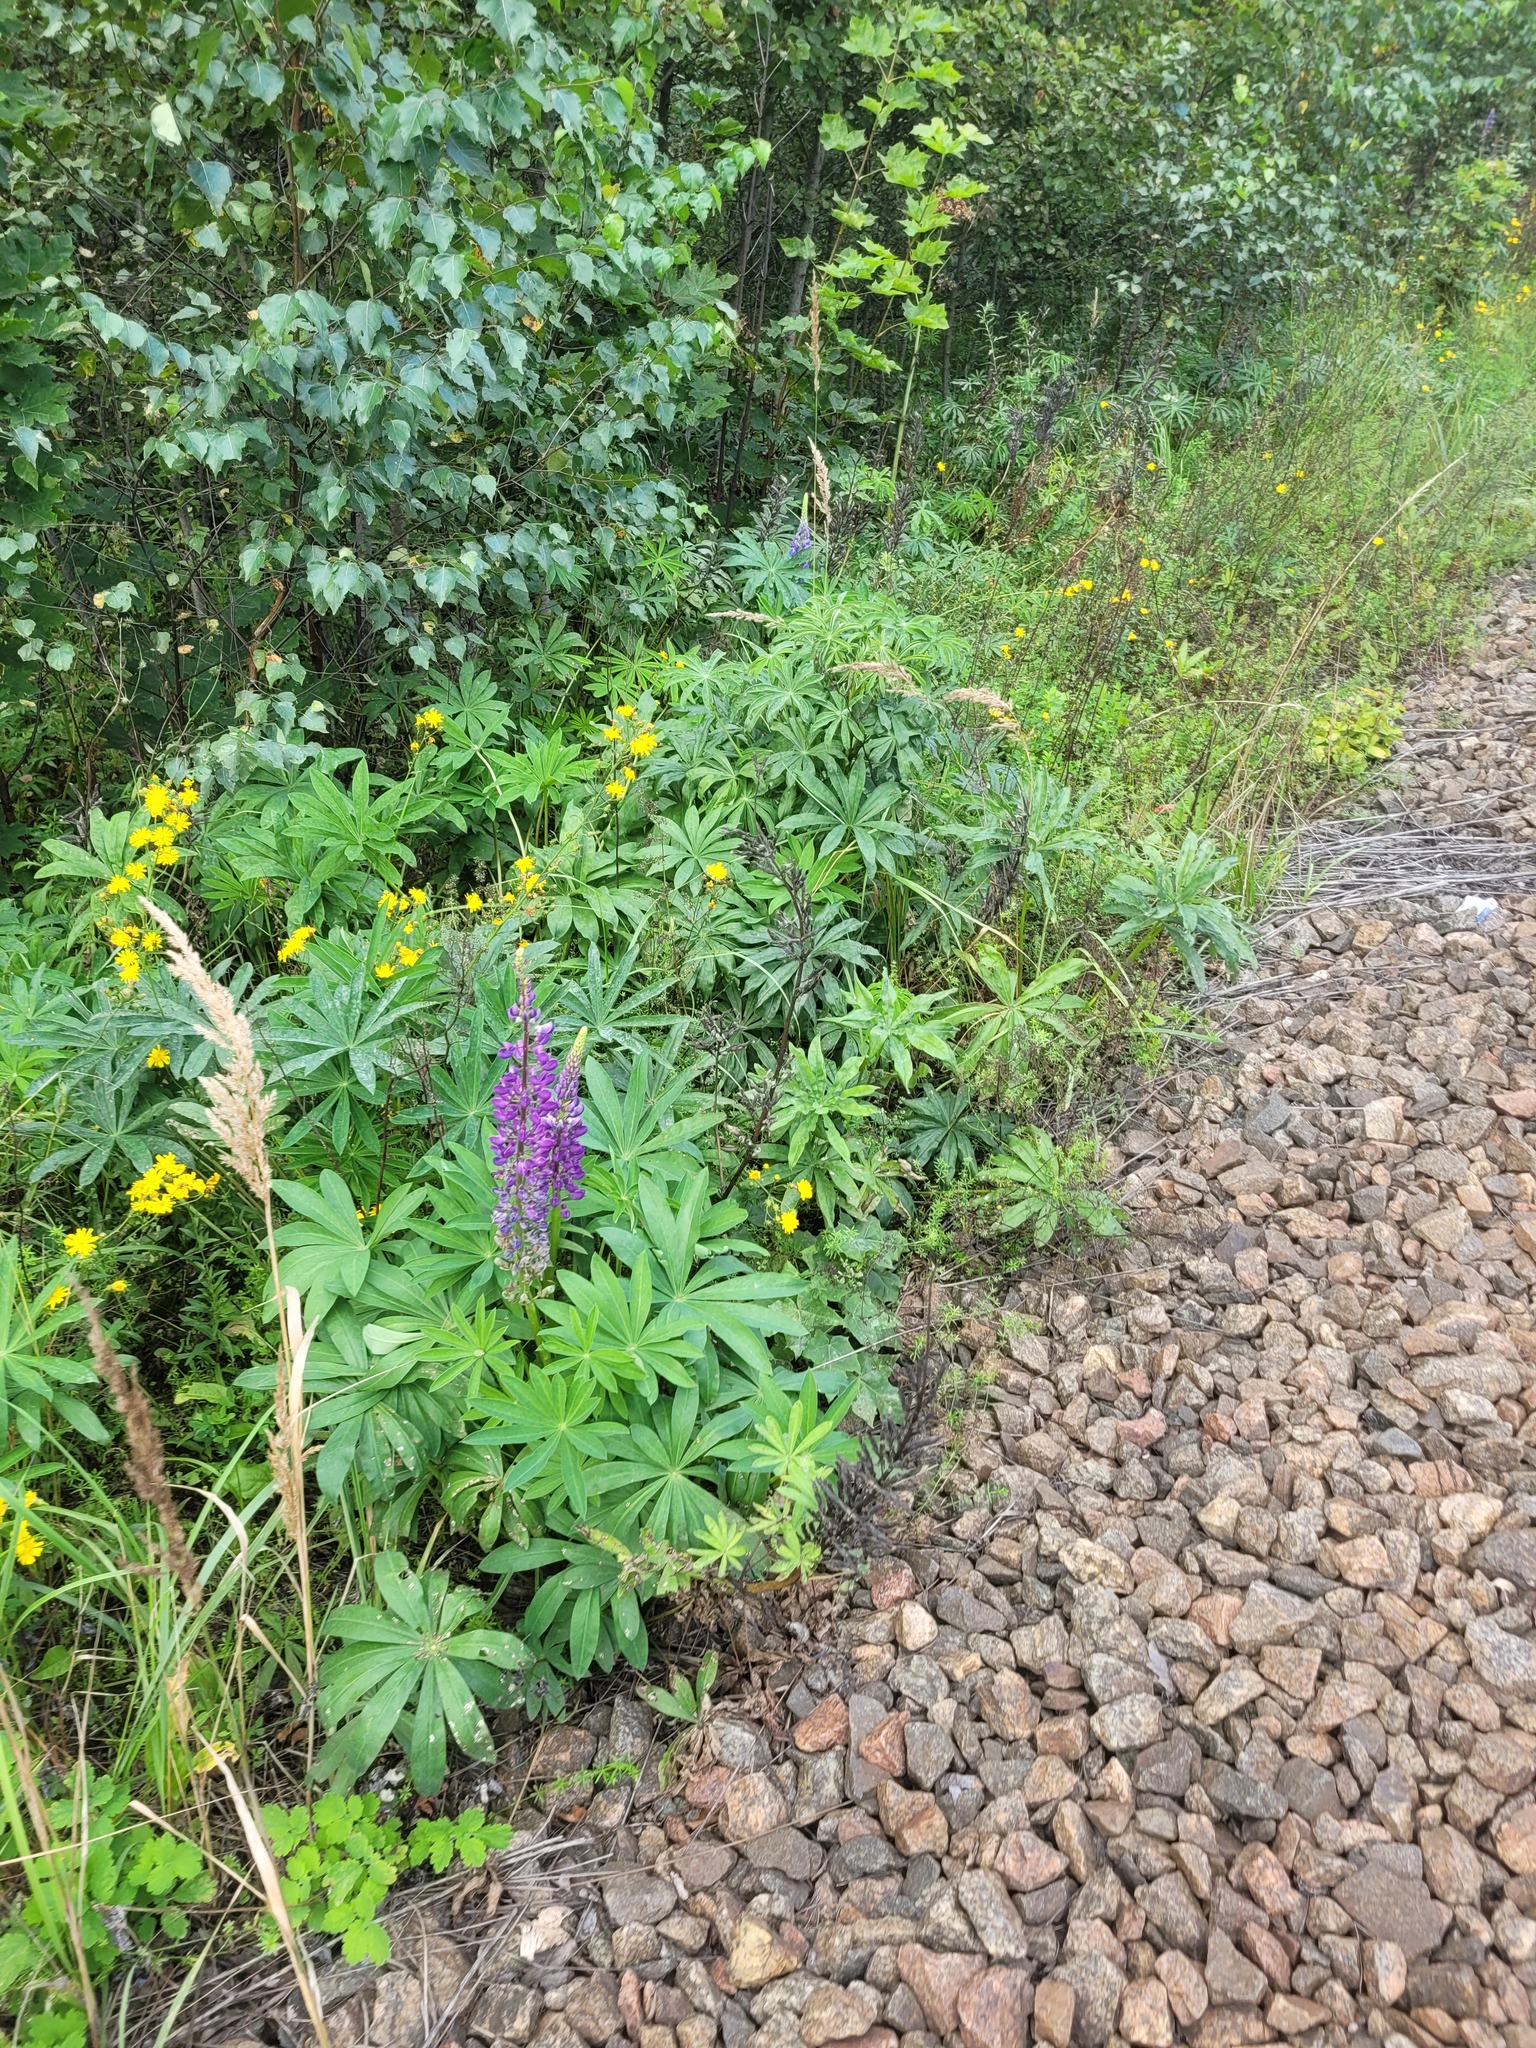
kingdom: Plantae
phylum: Tracheophyta
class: Magnoliopsida
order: Fabales
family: Fabaceae
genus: Lupinus
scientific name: Lupinus polyphyllus
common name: Garden lupin
